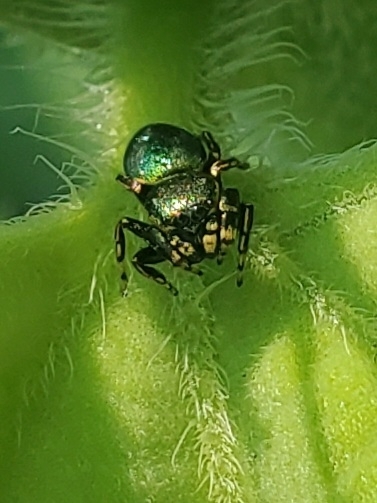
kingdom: Animalia
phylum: Arthropoda
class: Arachnida
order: Araneae
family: Salticidae
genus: Sassacus
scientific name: Sassacus papenhoei
